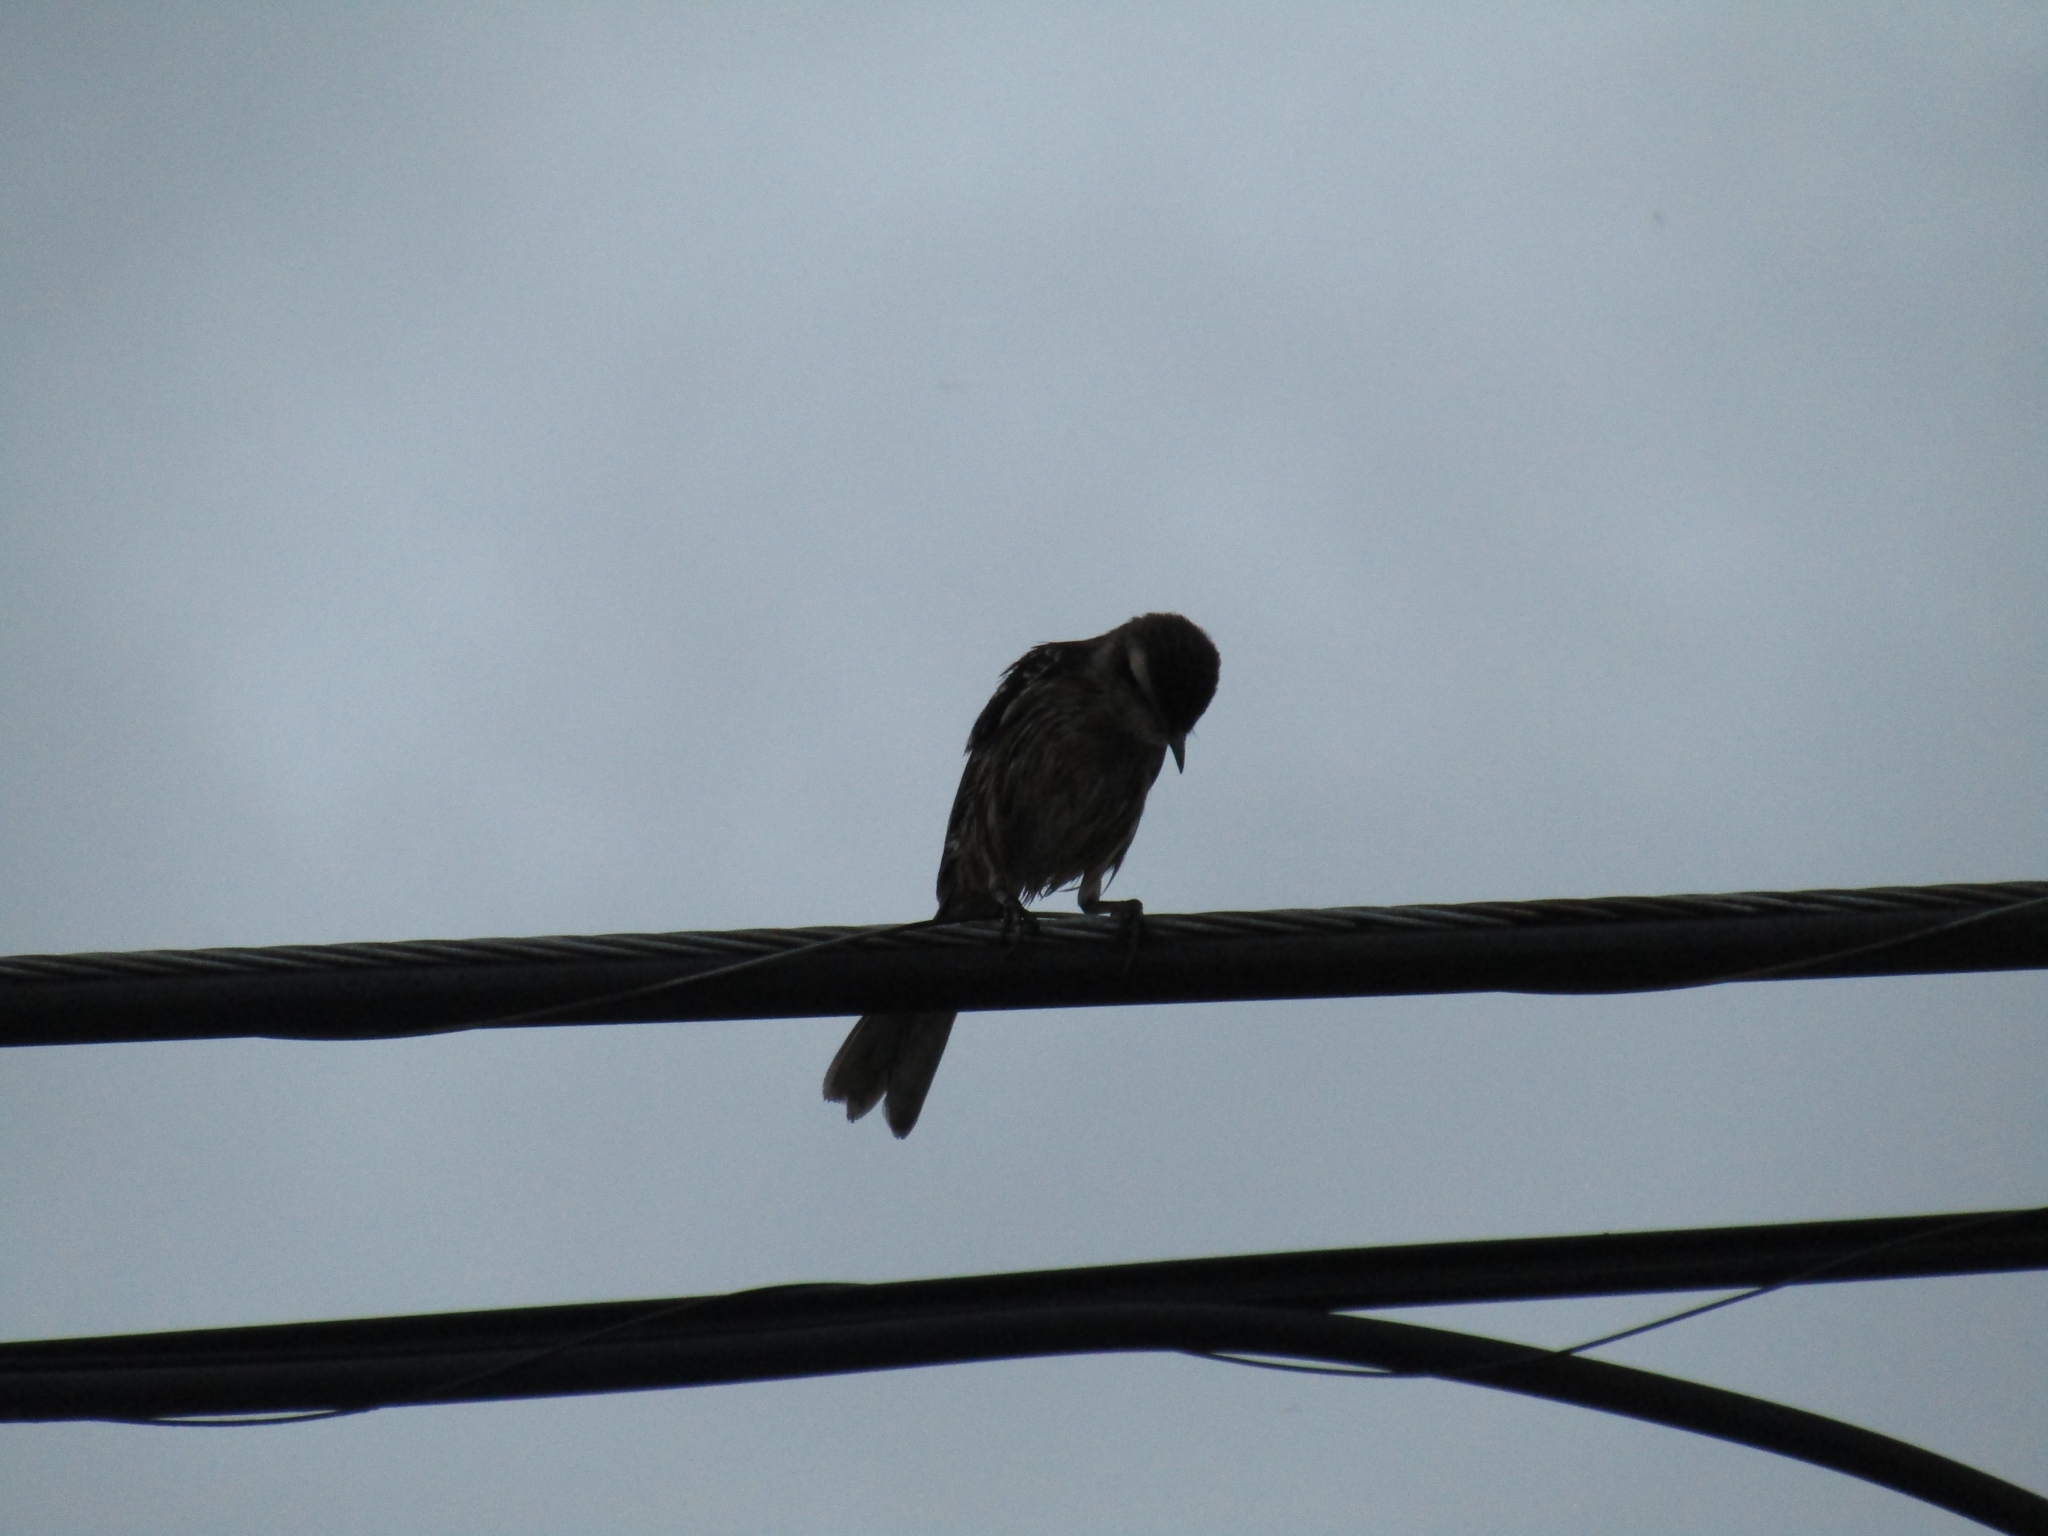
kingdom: Animalia
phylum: Chordata
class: Aves
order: Passeriformes
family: Mimidae
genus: Mimus
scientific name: Mimus saturninus
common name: Chalk-browed mockingbird
